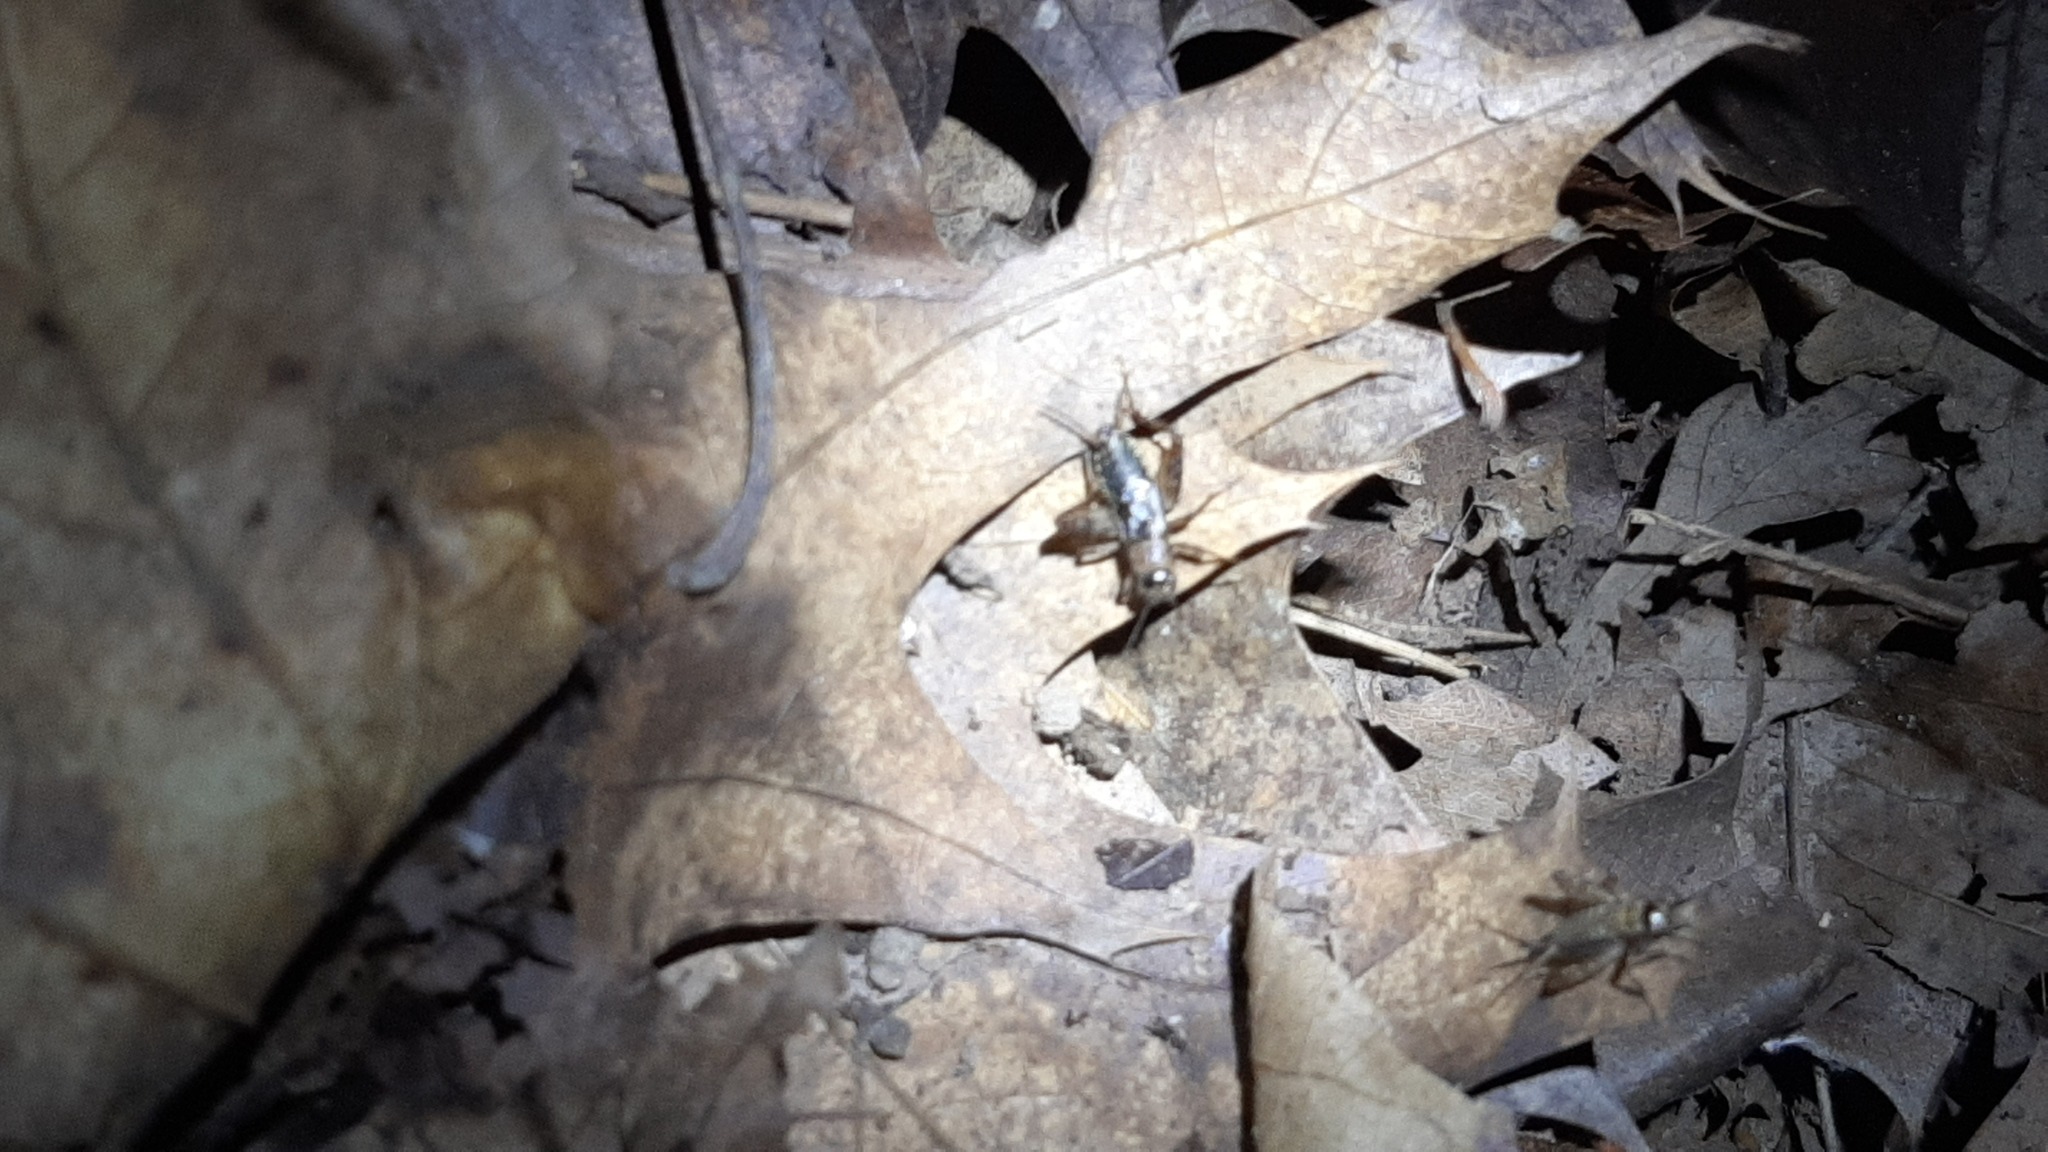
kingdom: Animalia
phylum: Arthropoda
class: Insecta
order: Orthoptera
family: Trigonidiidae
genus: Nemobius
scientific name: Nemobius sylvestris
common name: Wood-cricket
